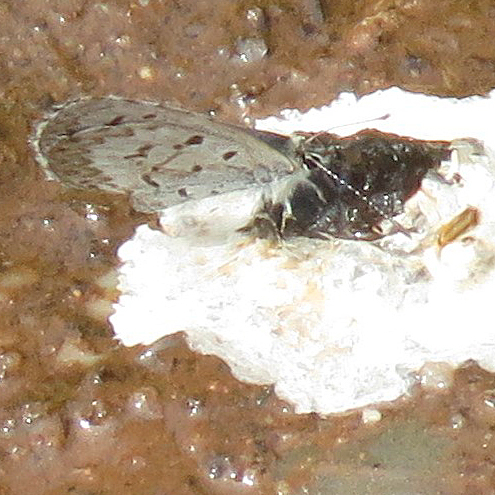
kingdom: Animalia
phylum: Arthropoda
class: Insecta
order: Lepidoptera
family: Lycaenidae
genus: Celastrina
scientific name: Celastrina lucia
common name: Lucia azure
